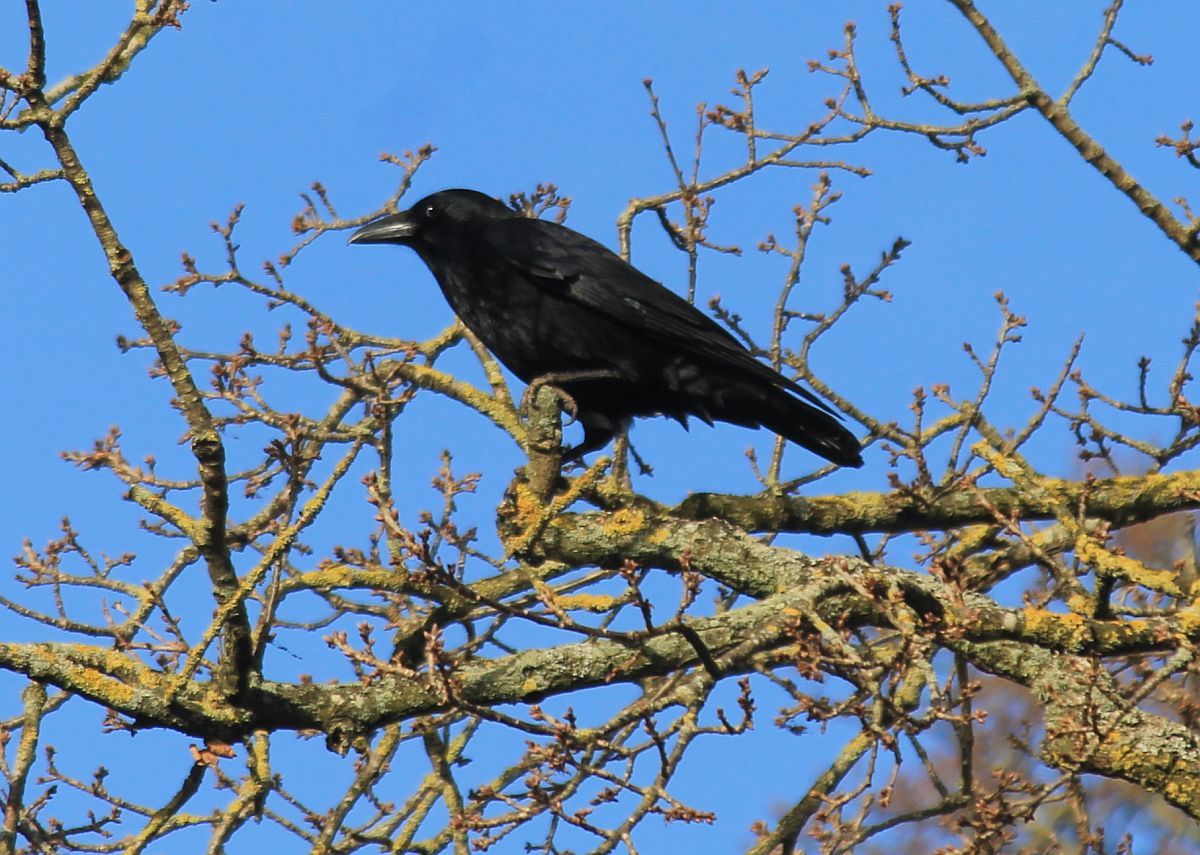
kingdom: Animalia
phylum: Chordata
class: Aves
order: Passeriformes
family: Corvidae
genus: Corvus
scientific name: Corvus corone
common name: Carrion crow
